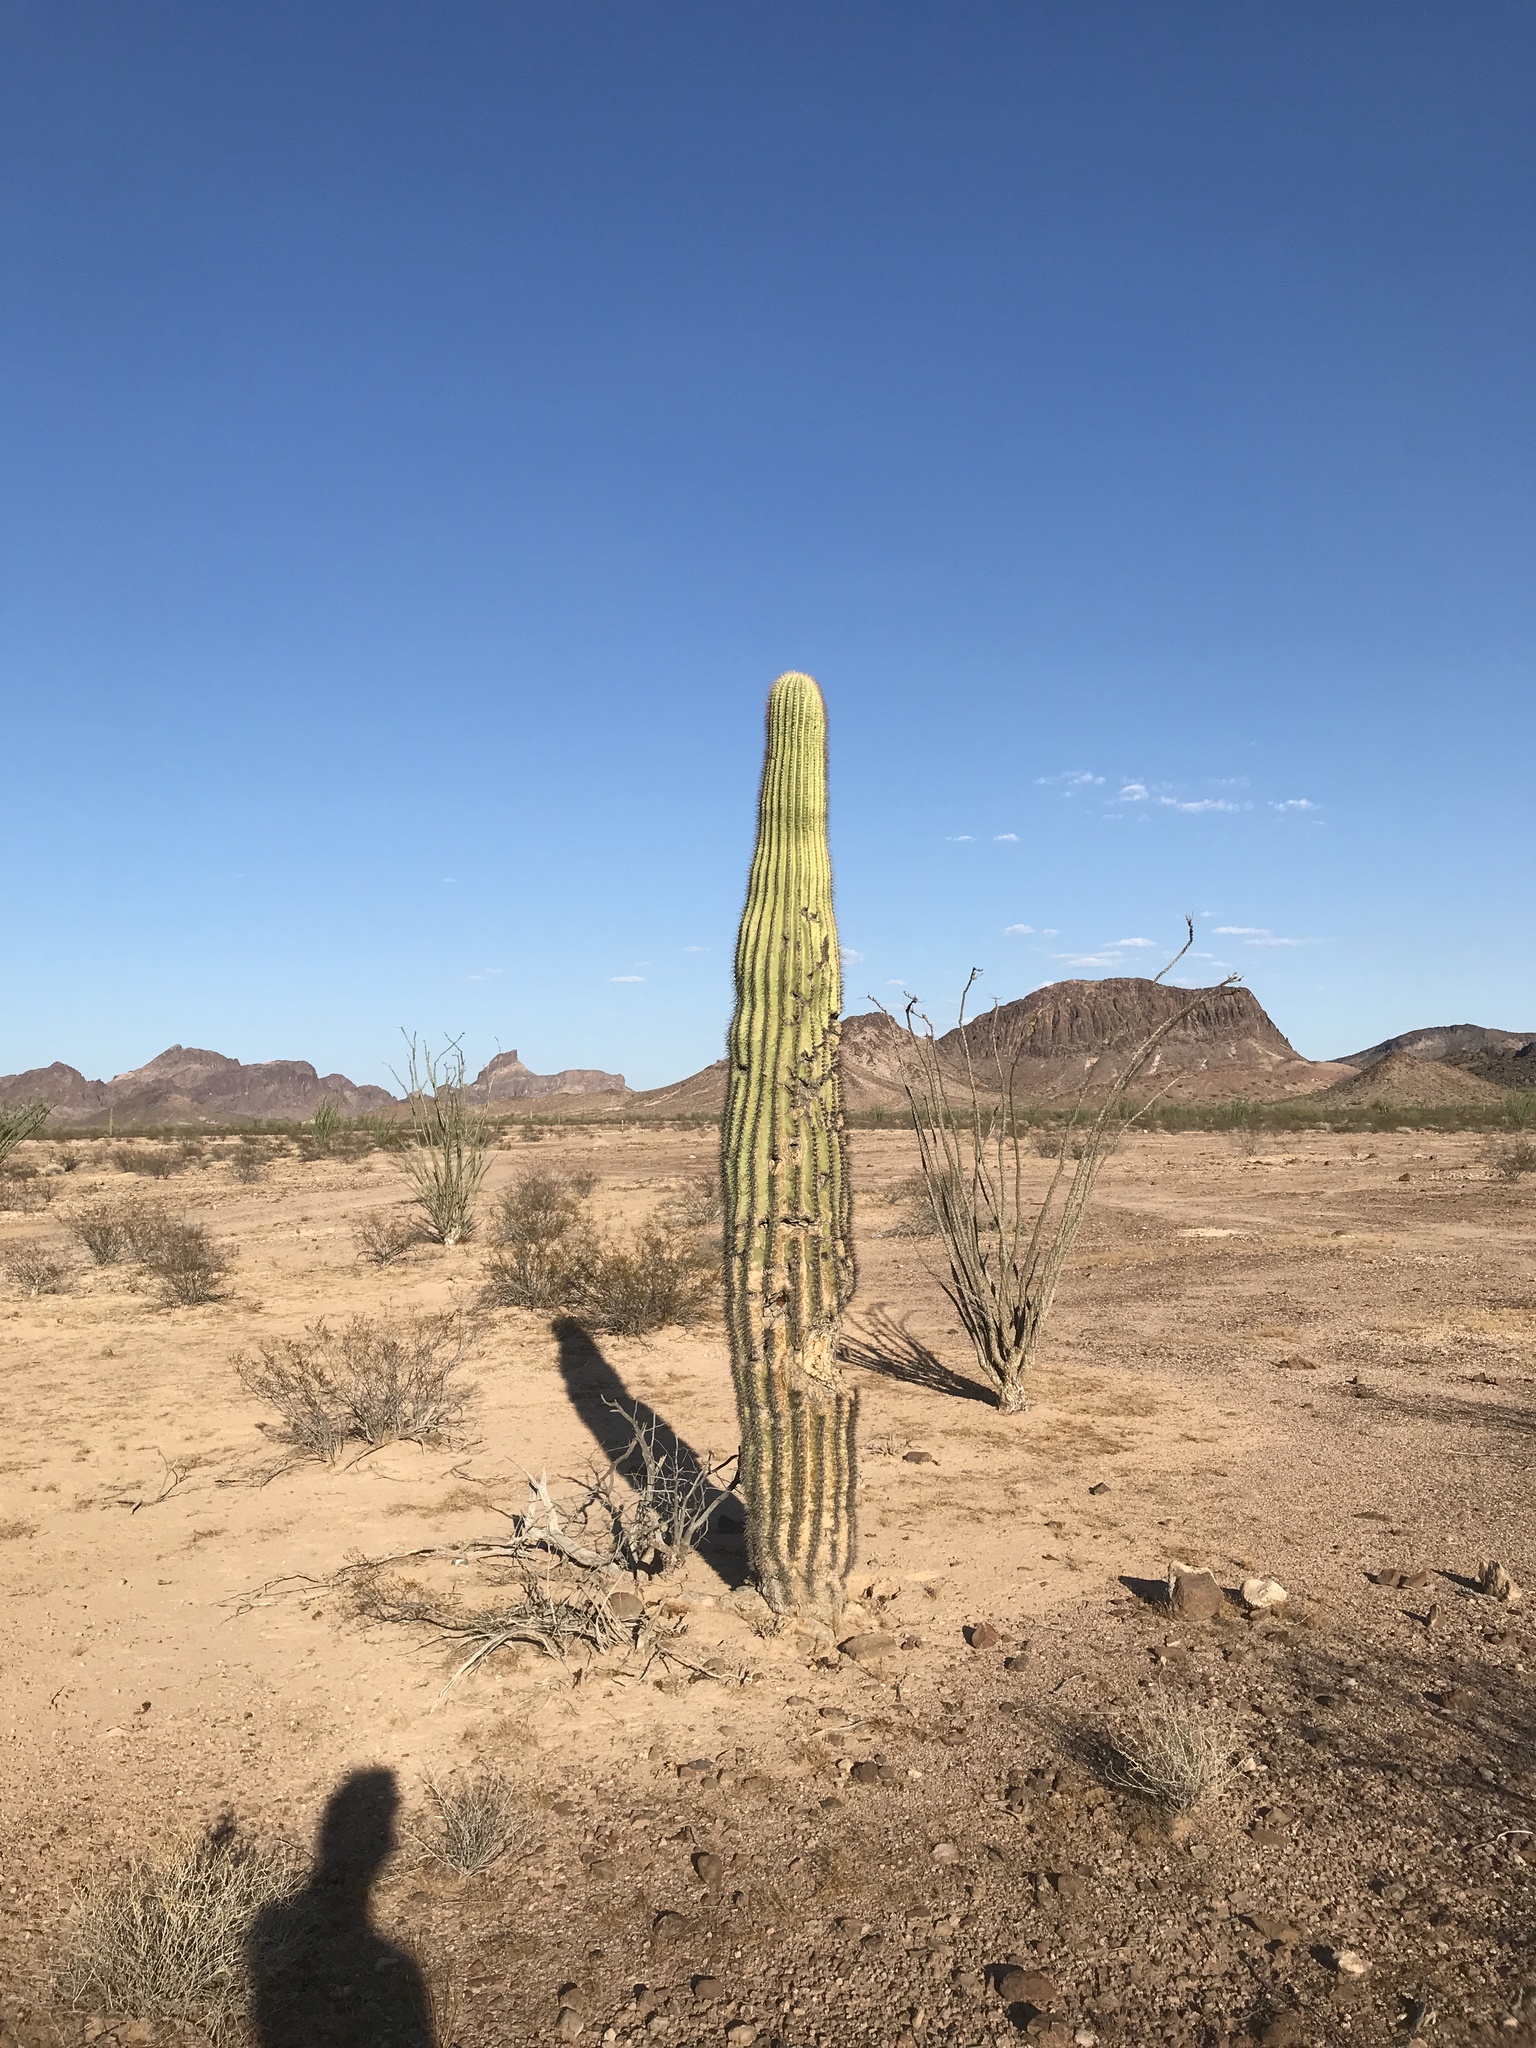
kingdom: Plantae
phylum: Tracheophyta
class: Magnoliopsida
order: Caryophyllales
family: Cactaceae
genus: Carnegiea
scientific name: Carnegiea gigantea
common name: Saguaro
